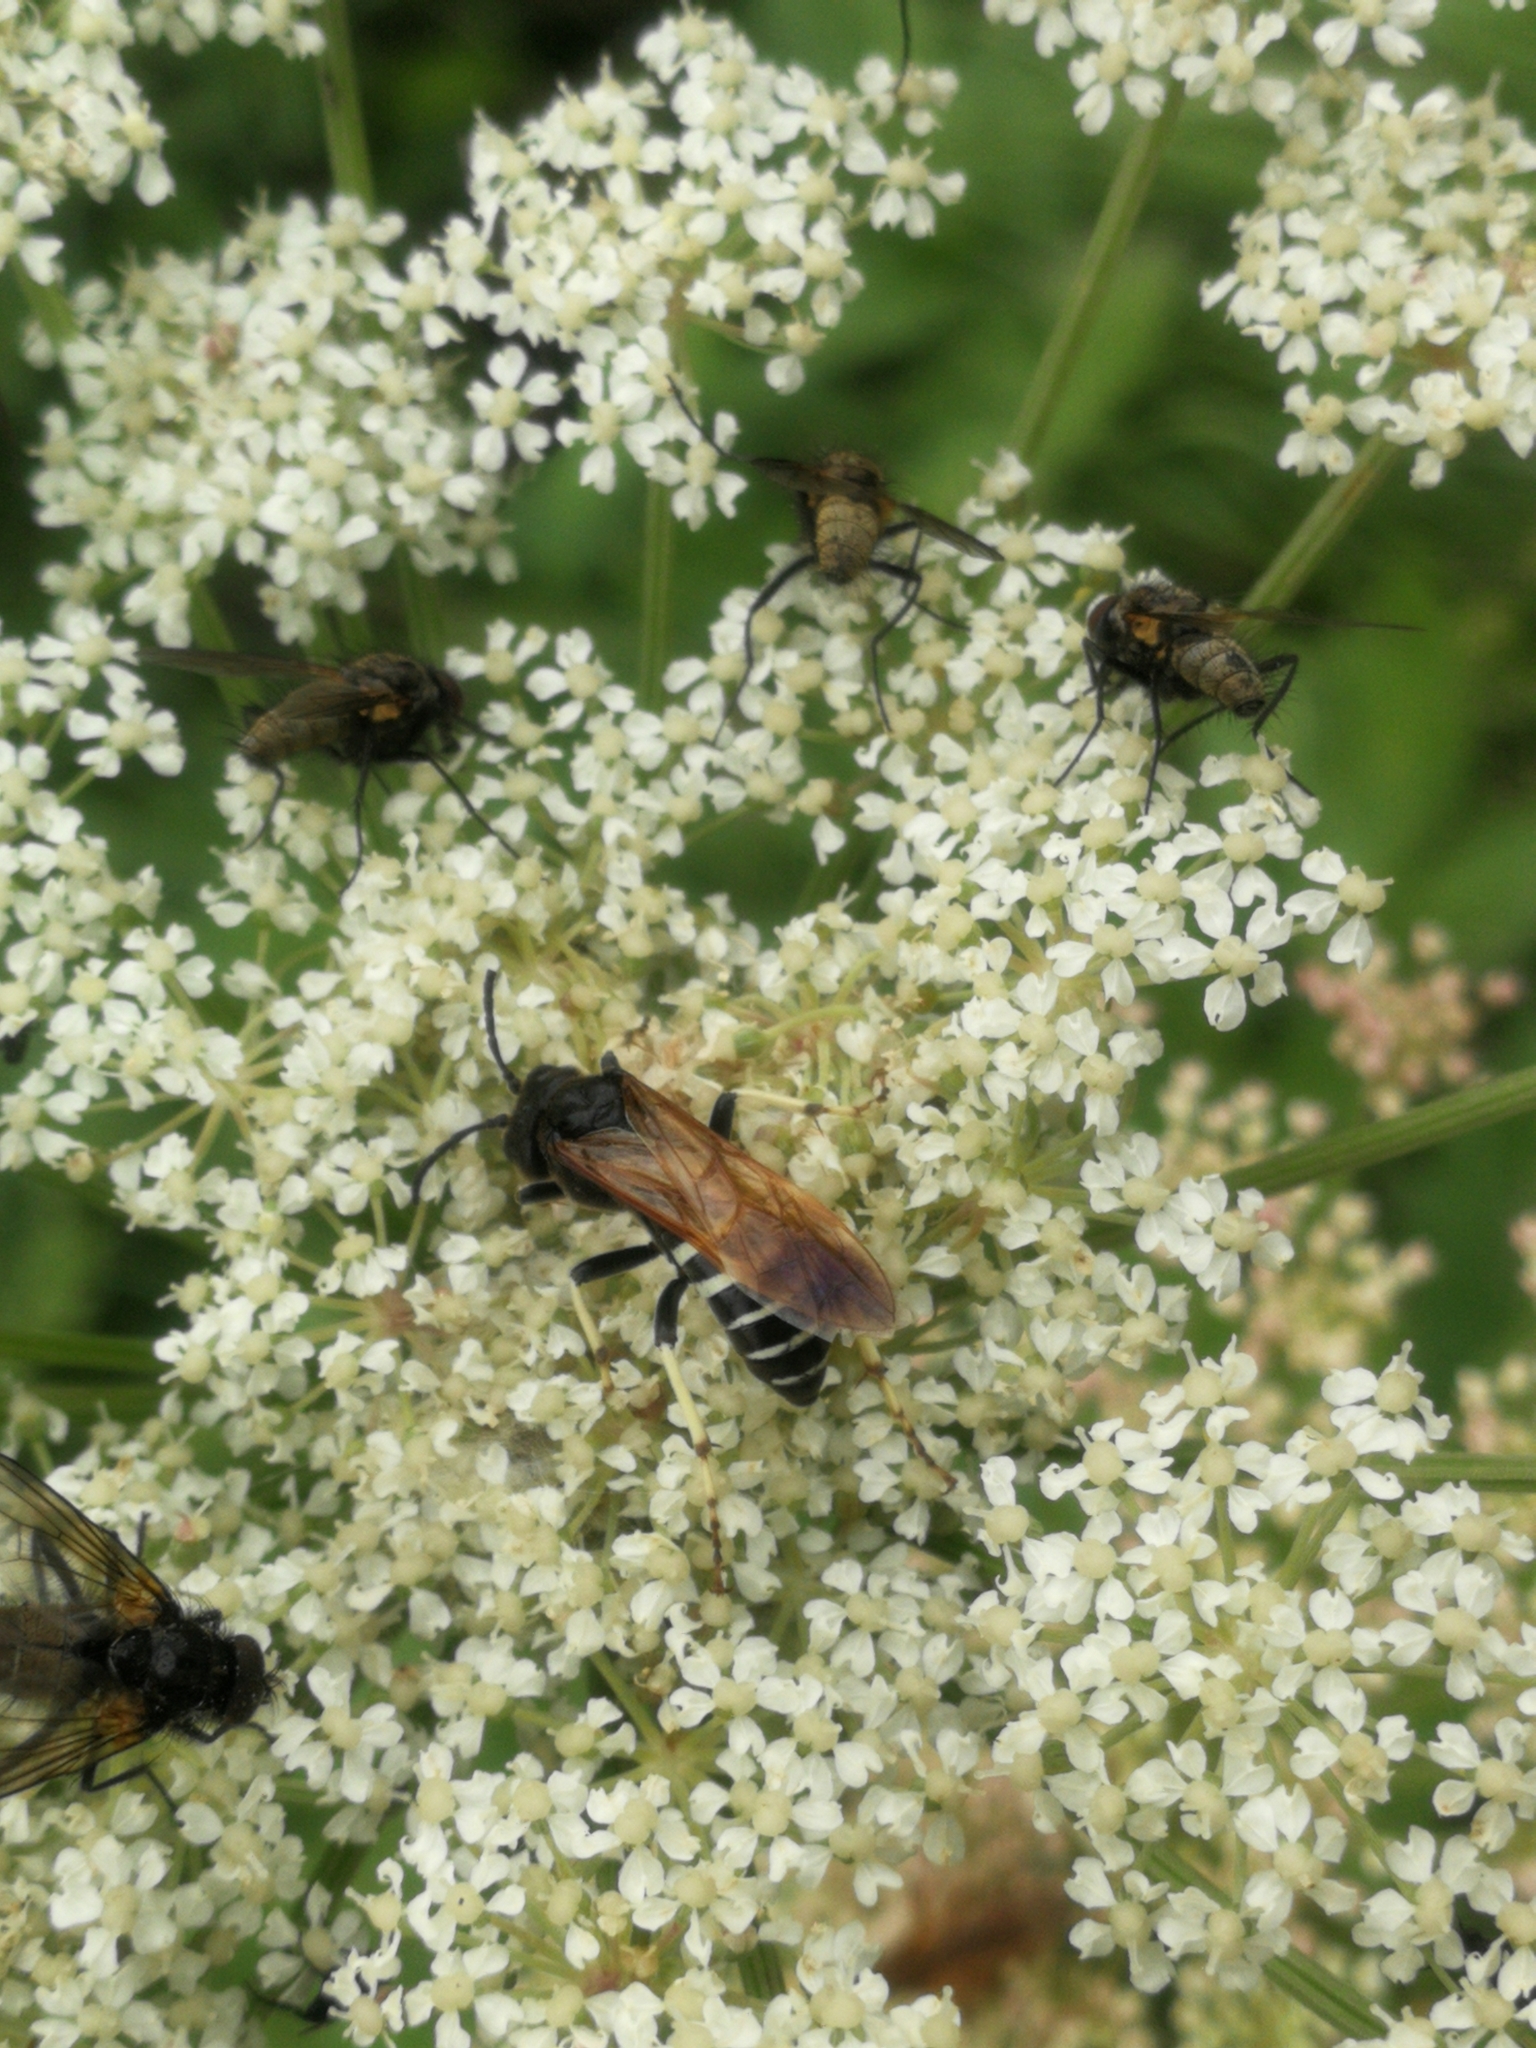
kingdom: Animalia
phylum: Arthropoda
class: Insecta
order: Hymenoptera
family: Tenthredinidae
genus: Tenthredo
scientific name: Tenthredo segmentaria
